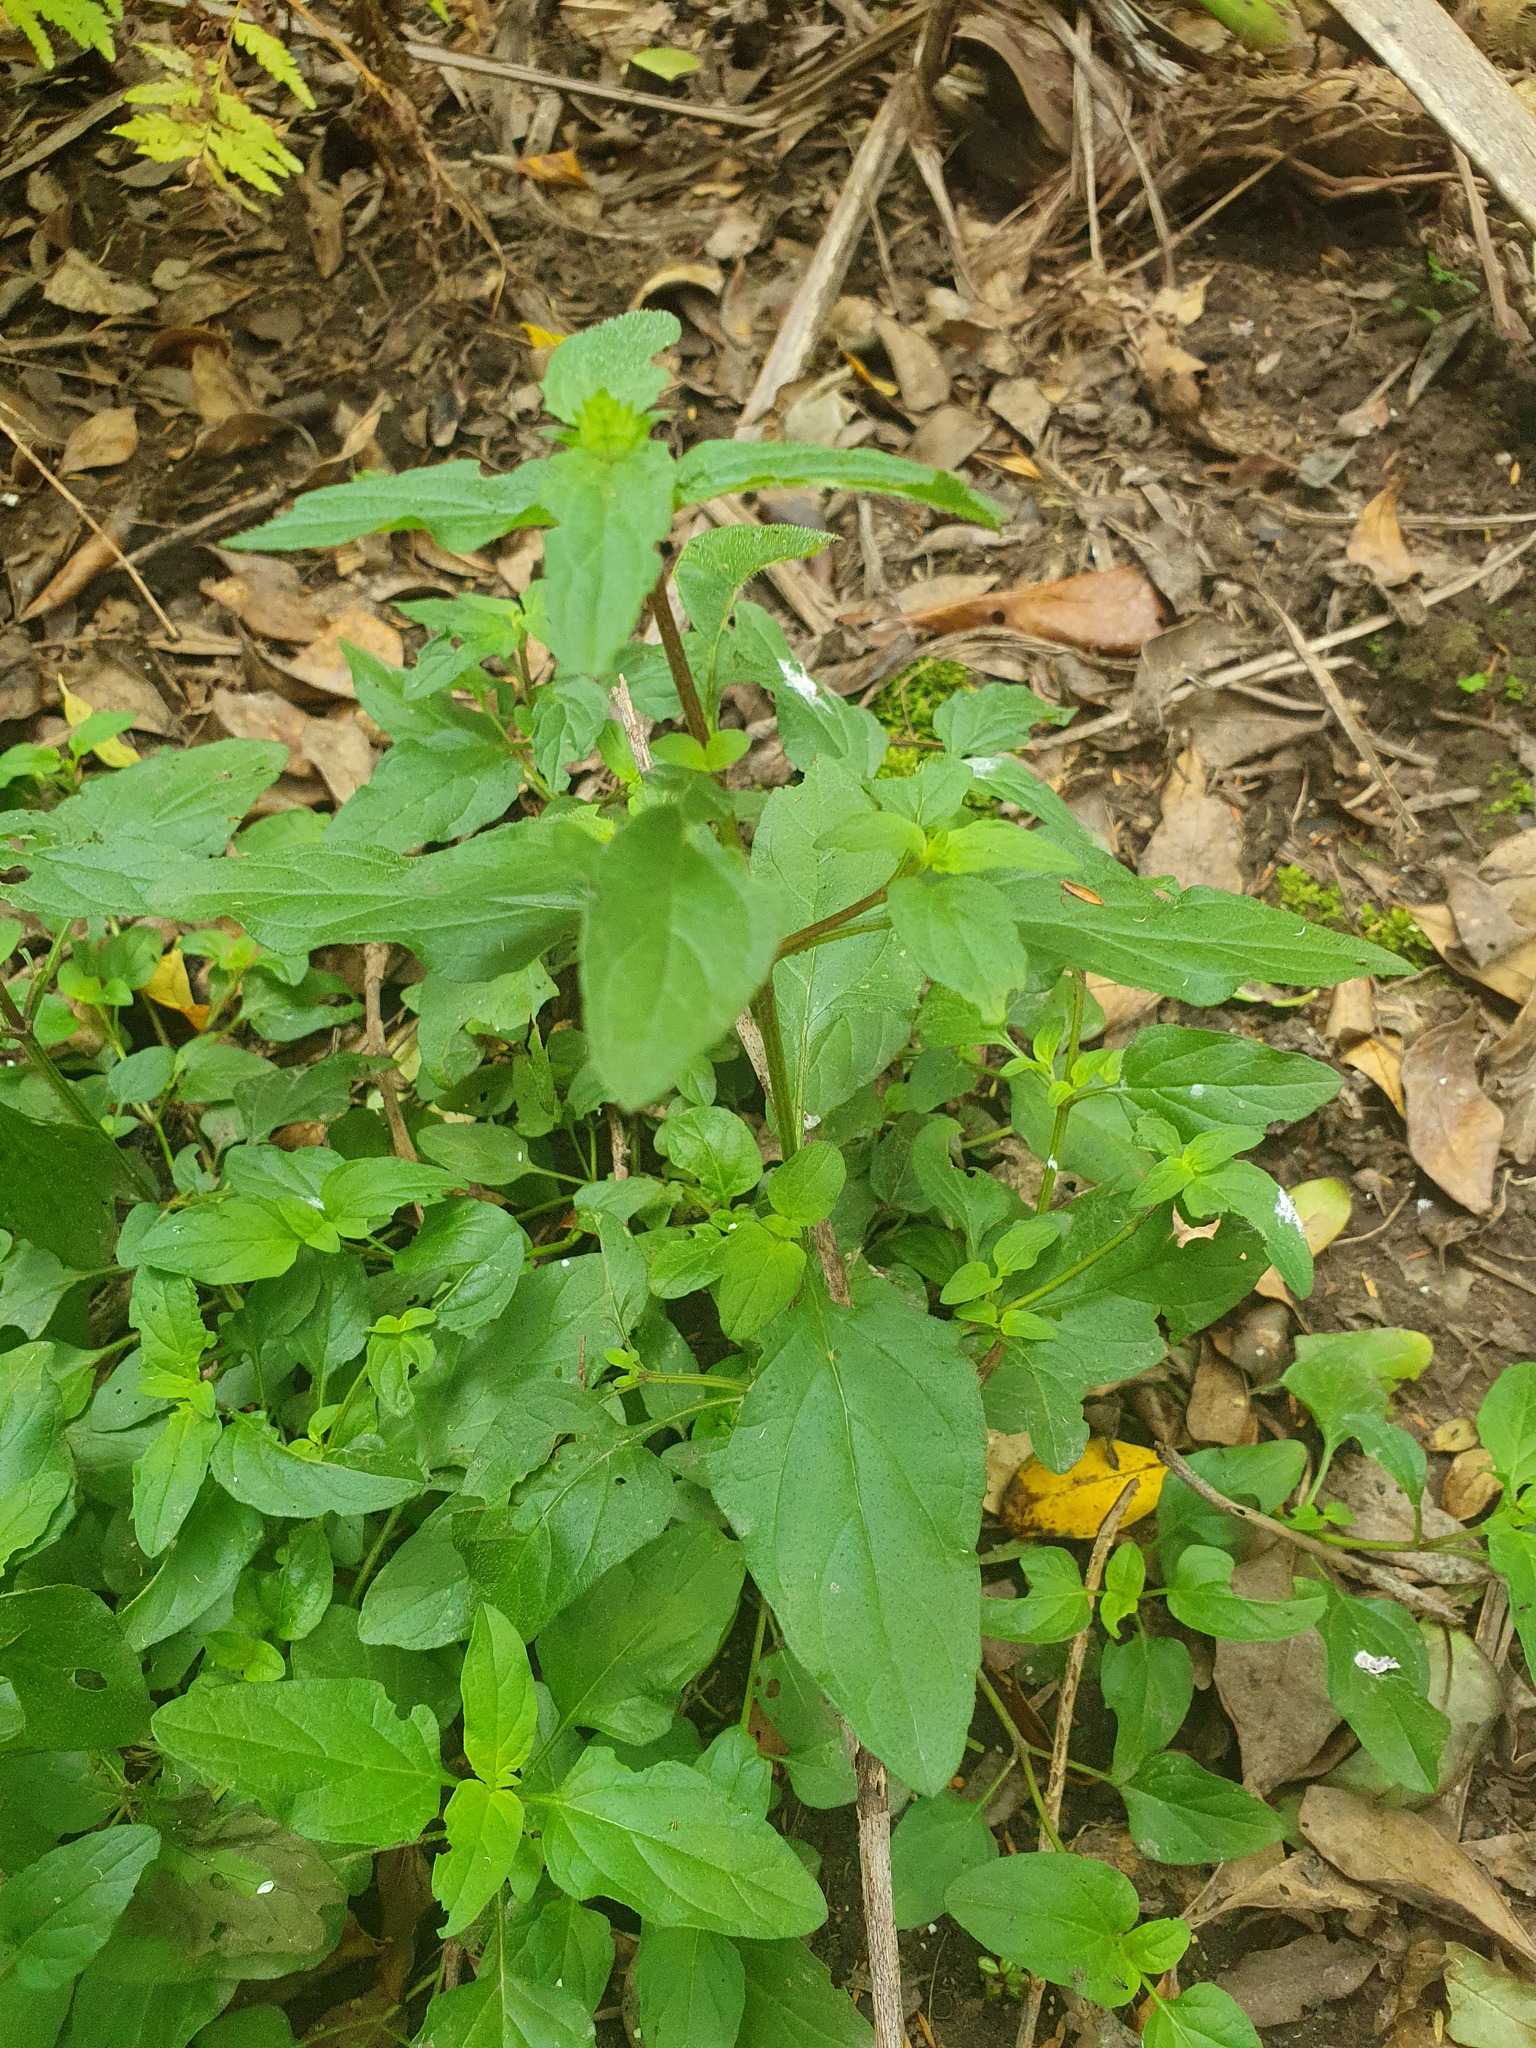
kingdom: Plantae
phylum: Tracheophyta
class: Magnoliopsida
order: Lamiales
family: Lamiaceae
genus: Prunella
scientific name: Prunella vulgaris
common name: Heal-all
